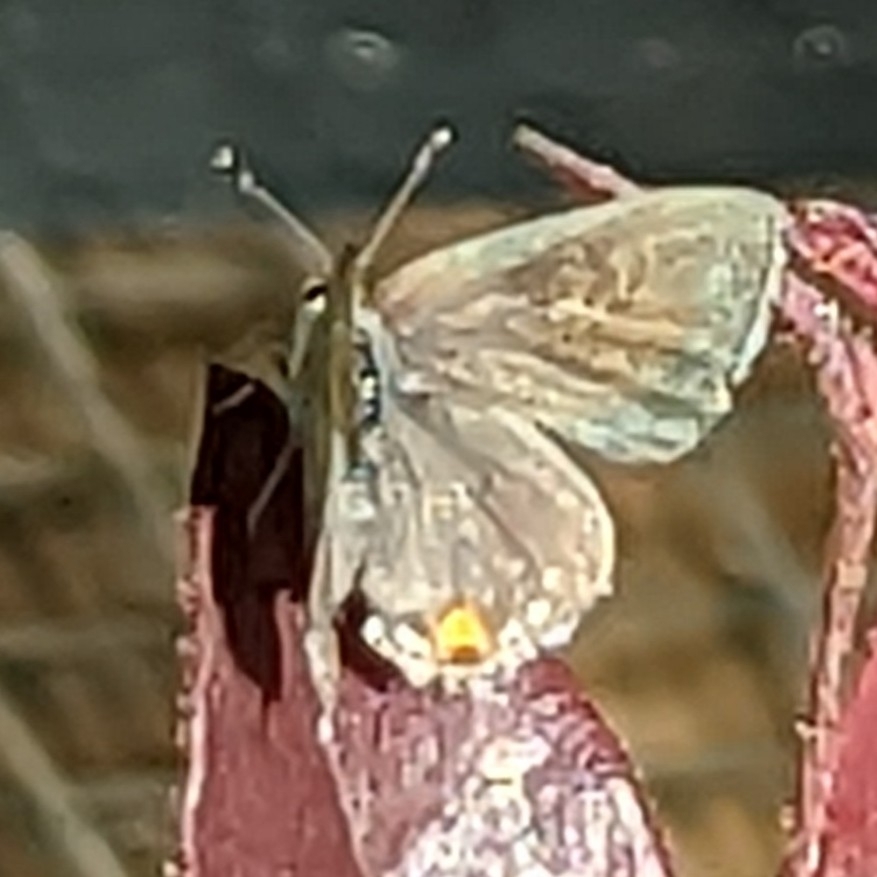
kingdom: Animalia
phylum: Arthropoda
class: Insecta
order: Lepidoptera
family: Lycaenidae
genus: Strymon
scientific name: Strymon melinus
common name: Gray hairstreak
